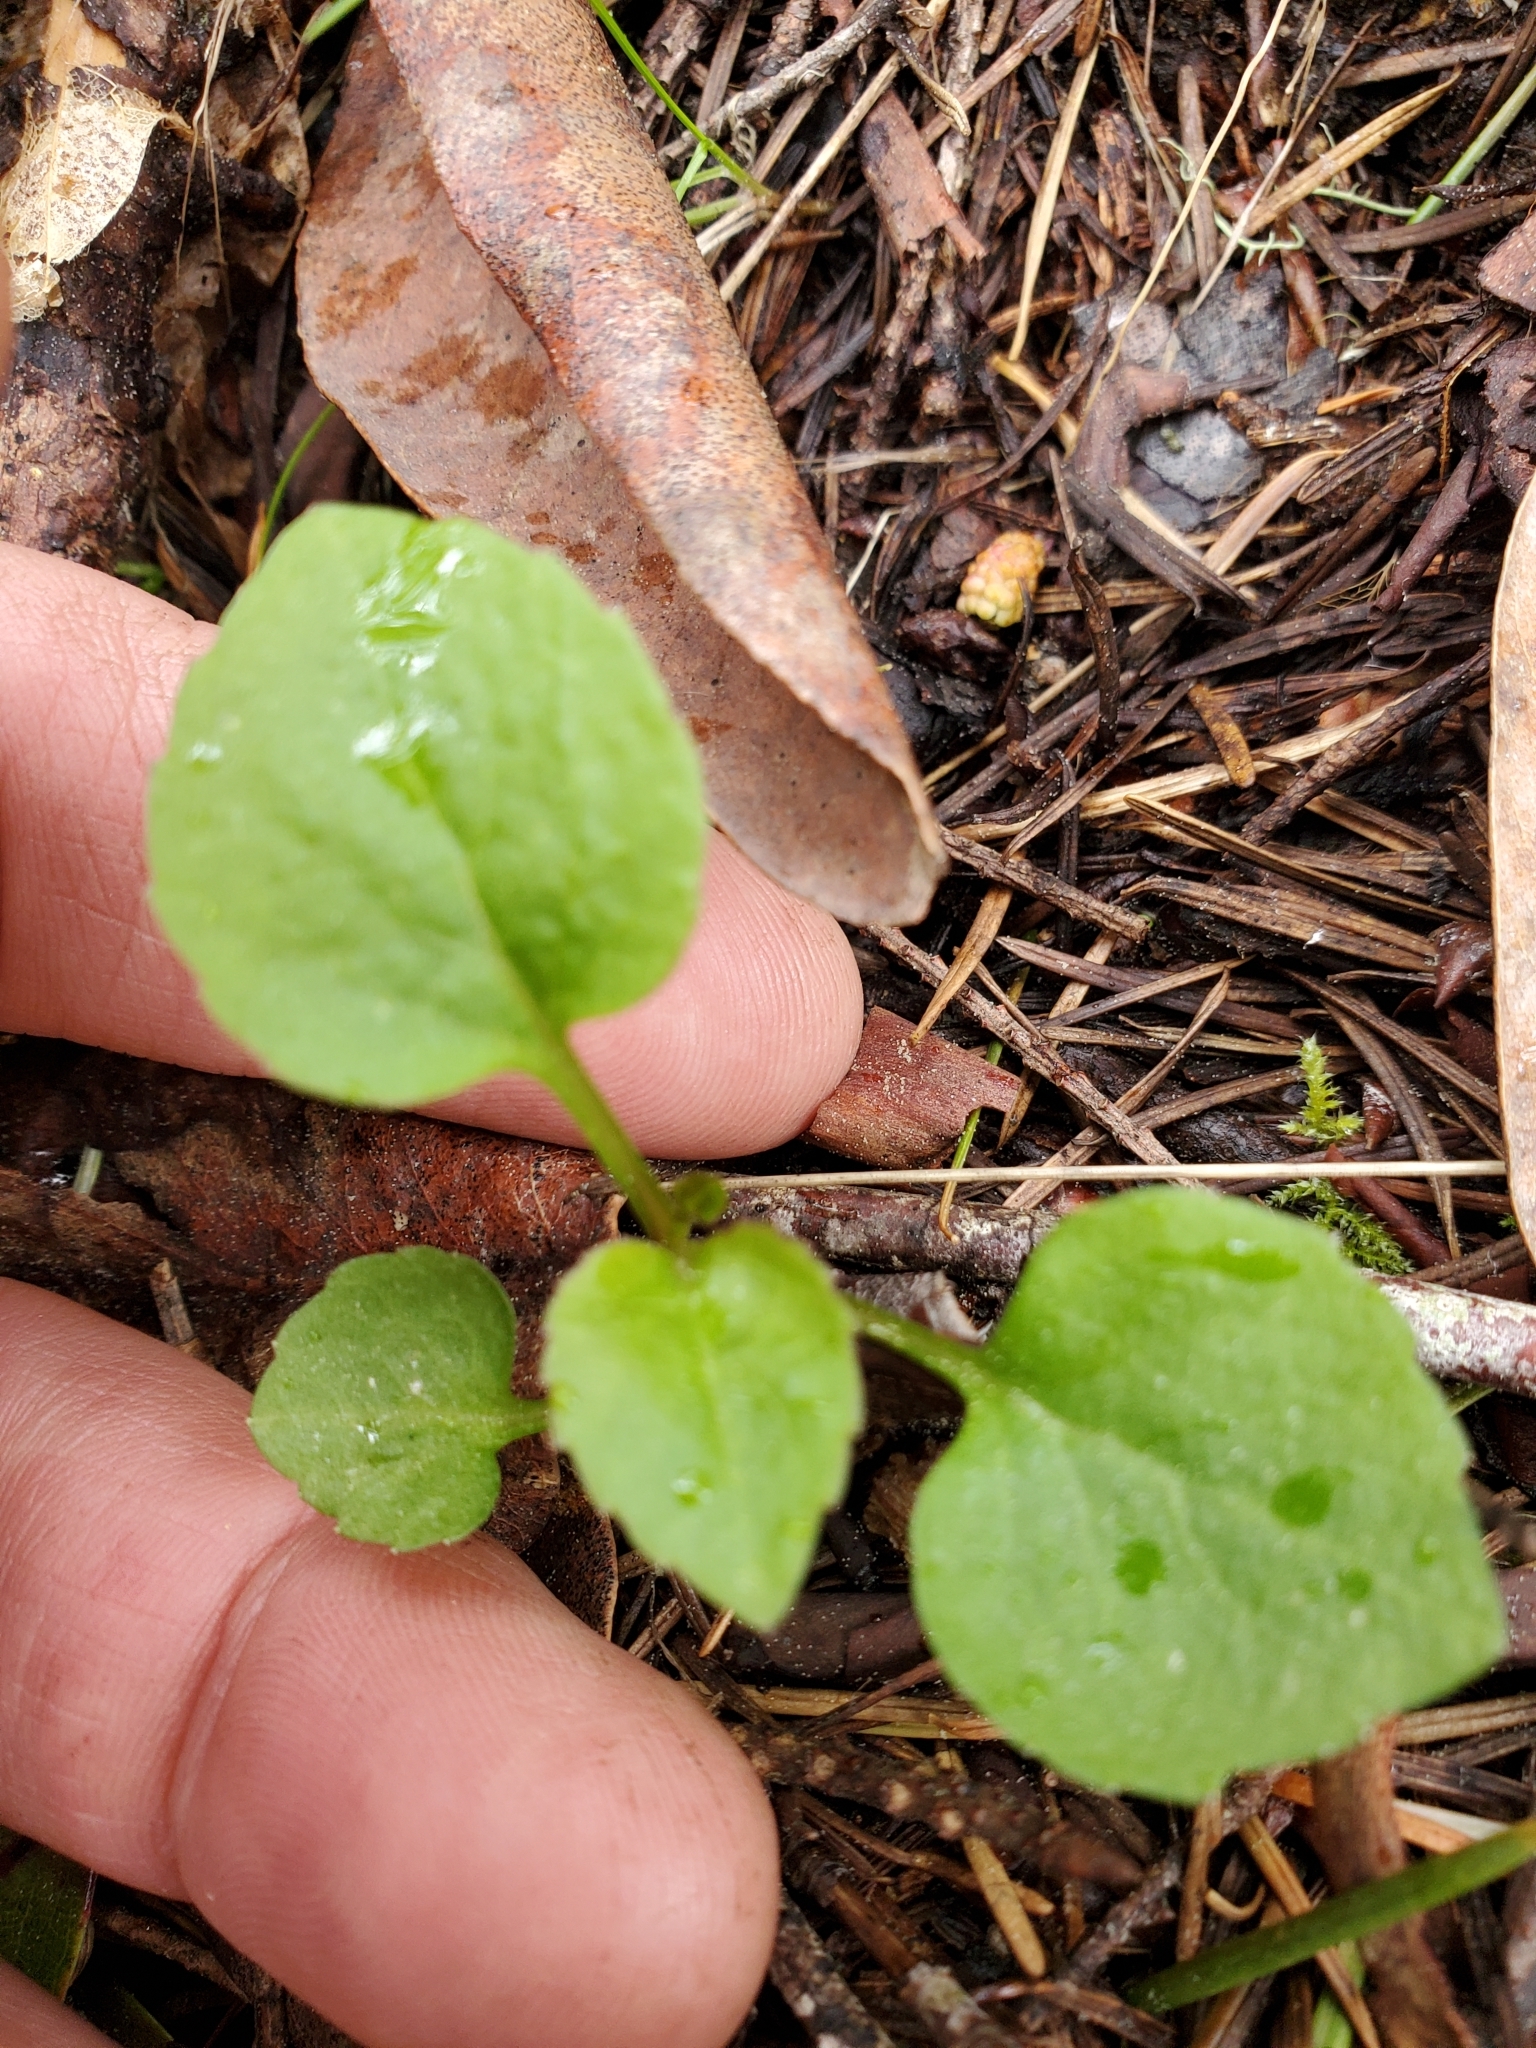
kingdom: Plantae
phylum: Tracheophyta
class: Magnoliopsida
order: Asterales
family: Campanulaceae
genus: Campanula
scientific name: Campanula scouleri
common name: Scouler's harebell
